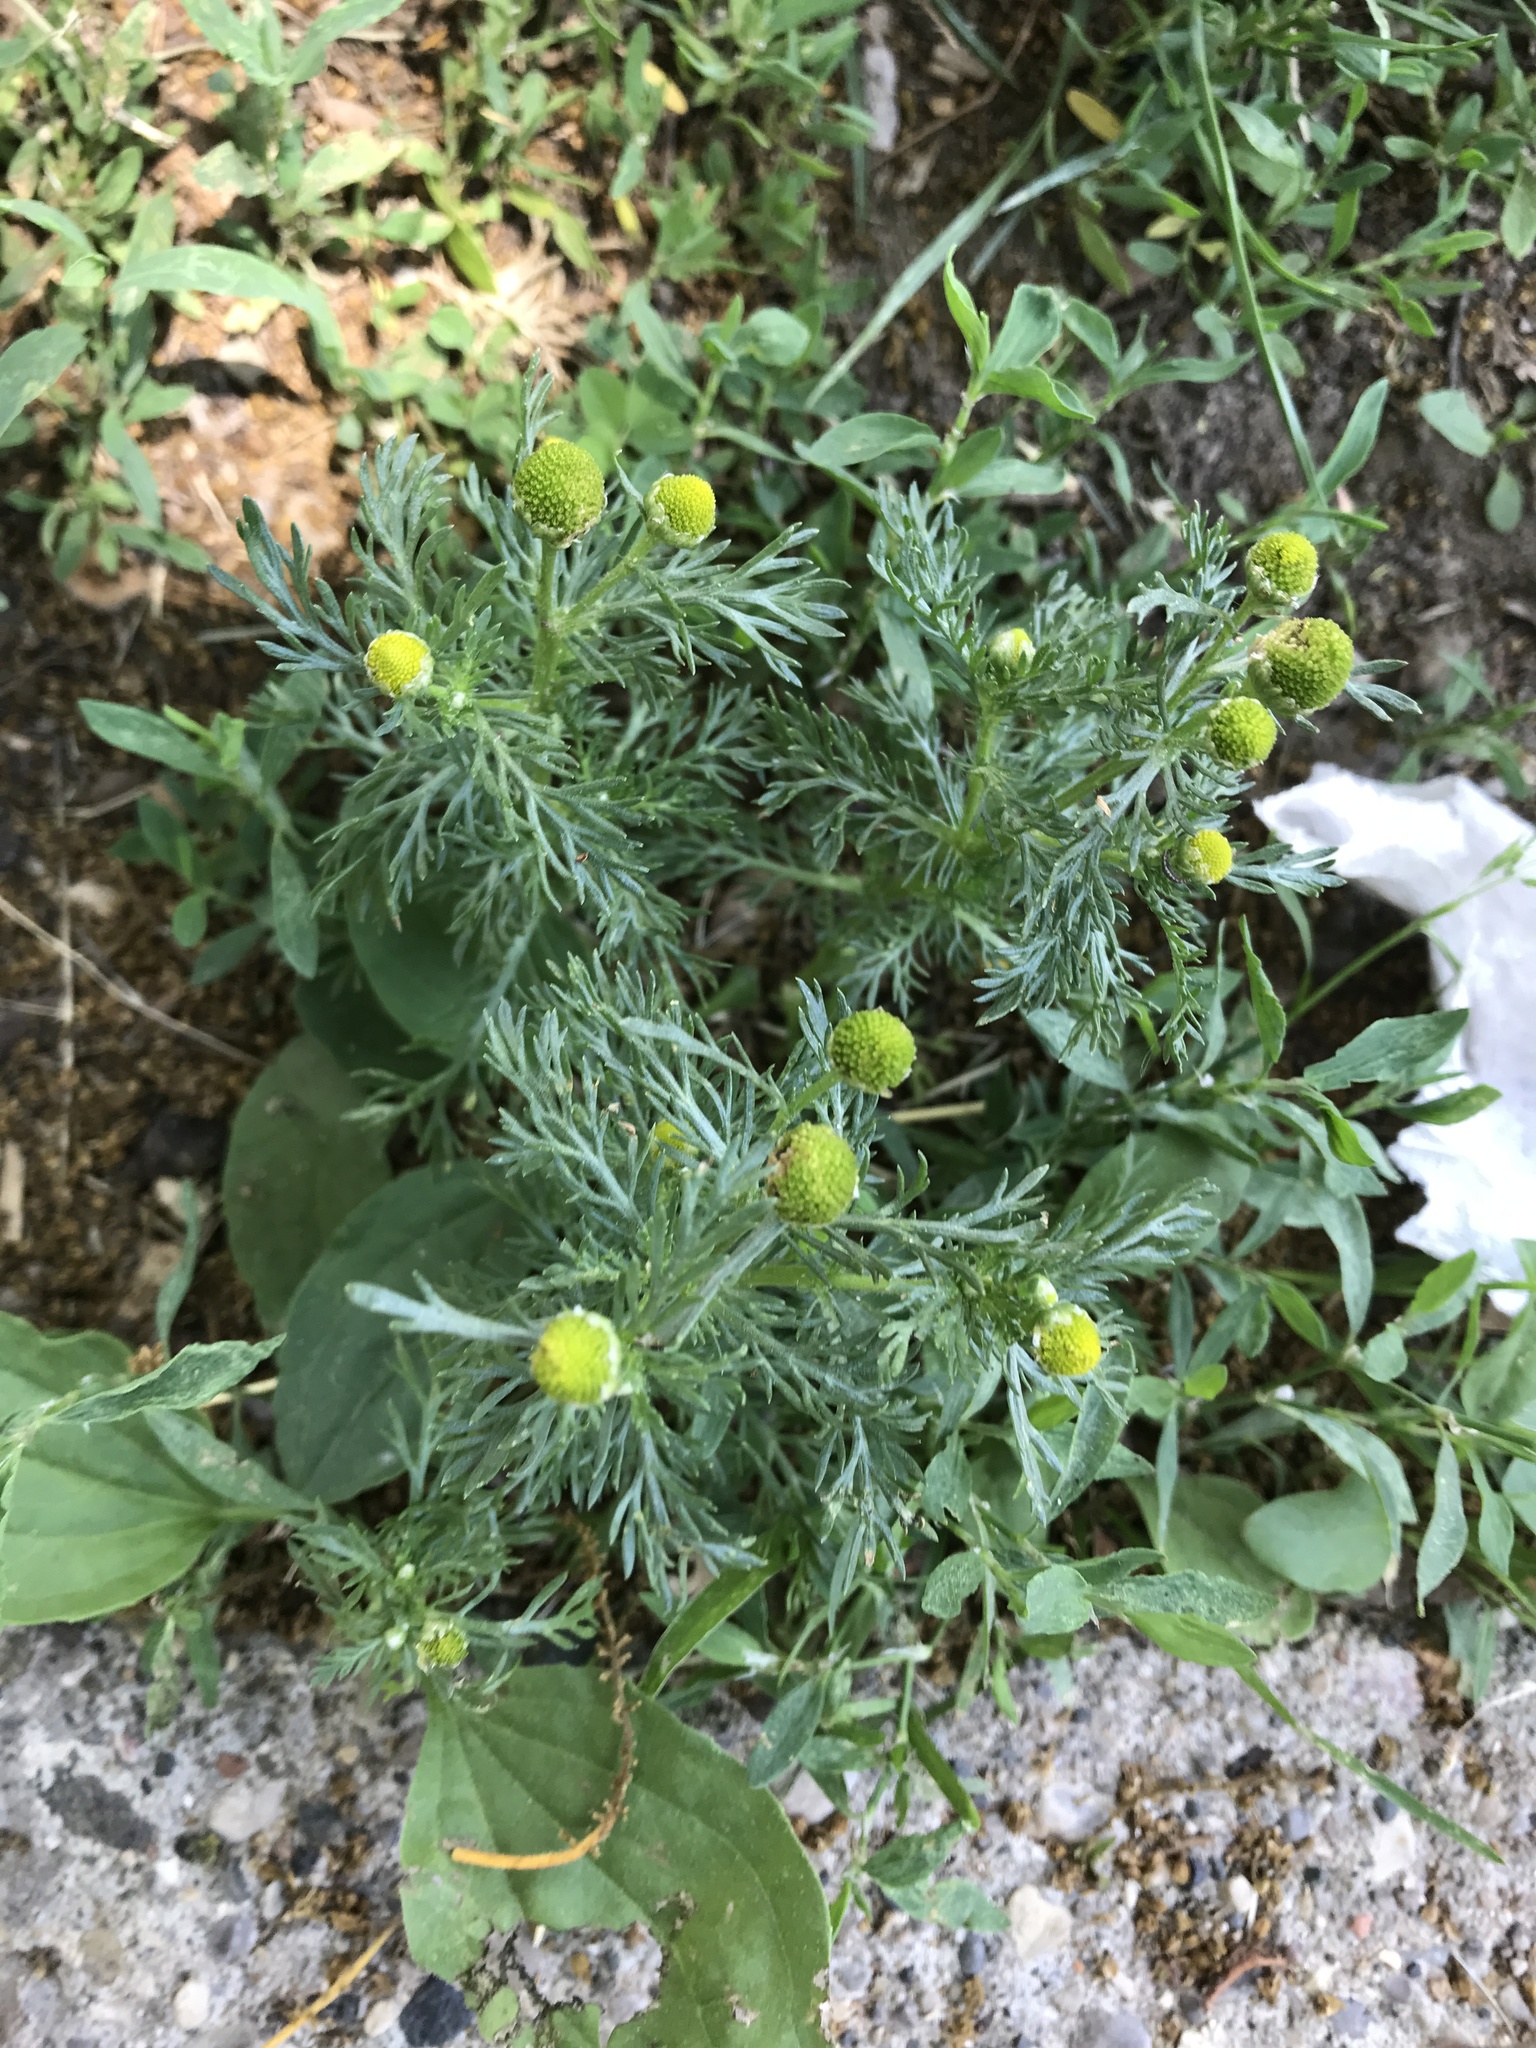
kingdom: Plantae
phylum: Tracheophyta
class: Magnoliopsida
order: Asterales
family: Asteraceae
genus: Matricaria
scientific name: Matricaria discoidea
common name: Disc mayweed
